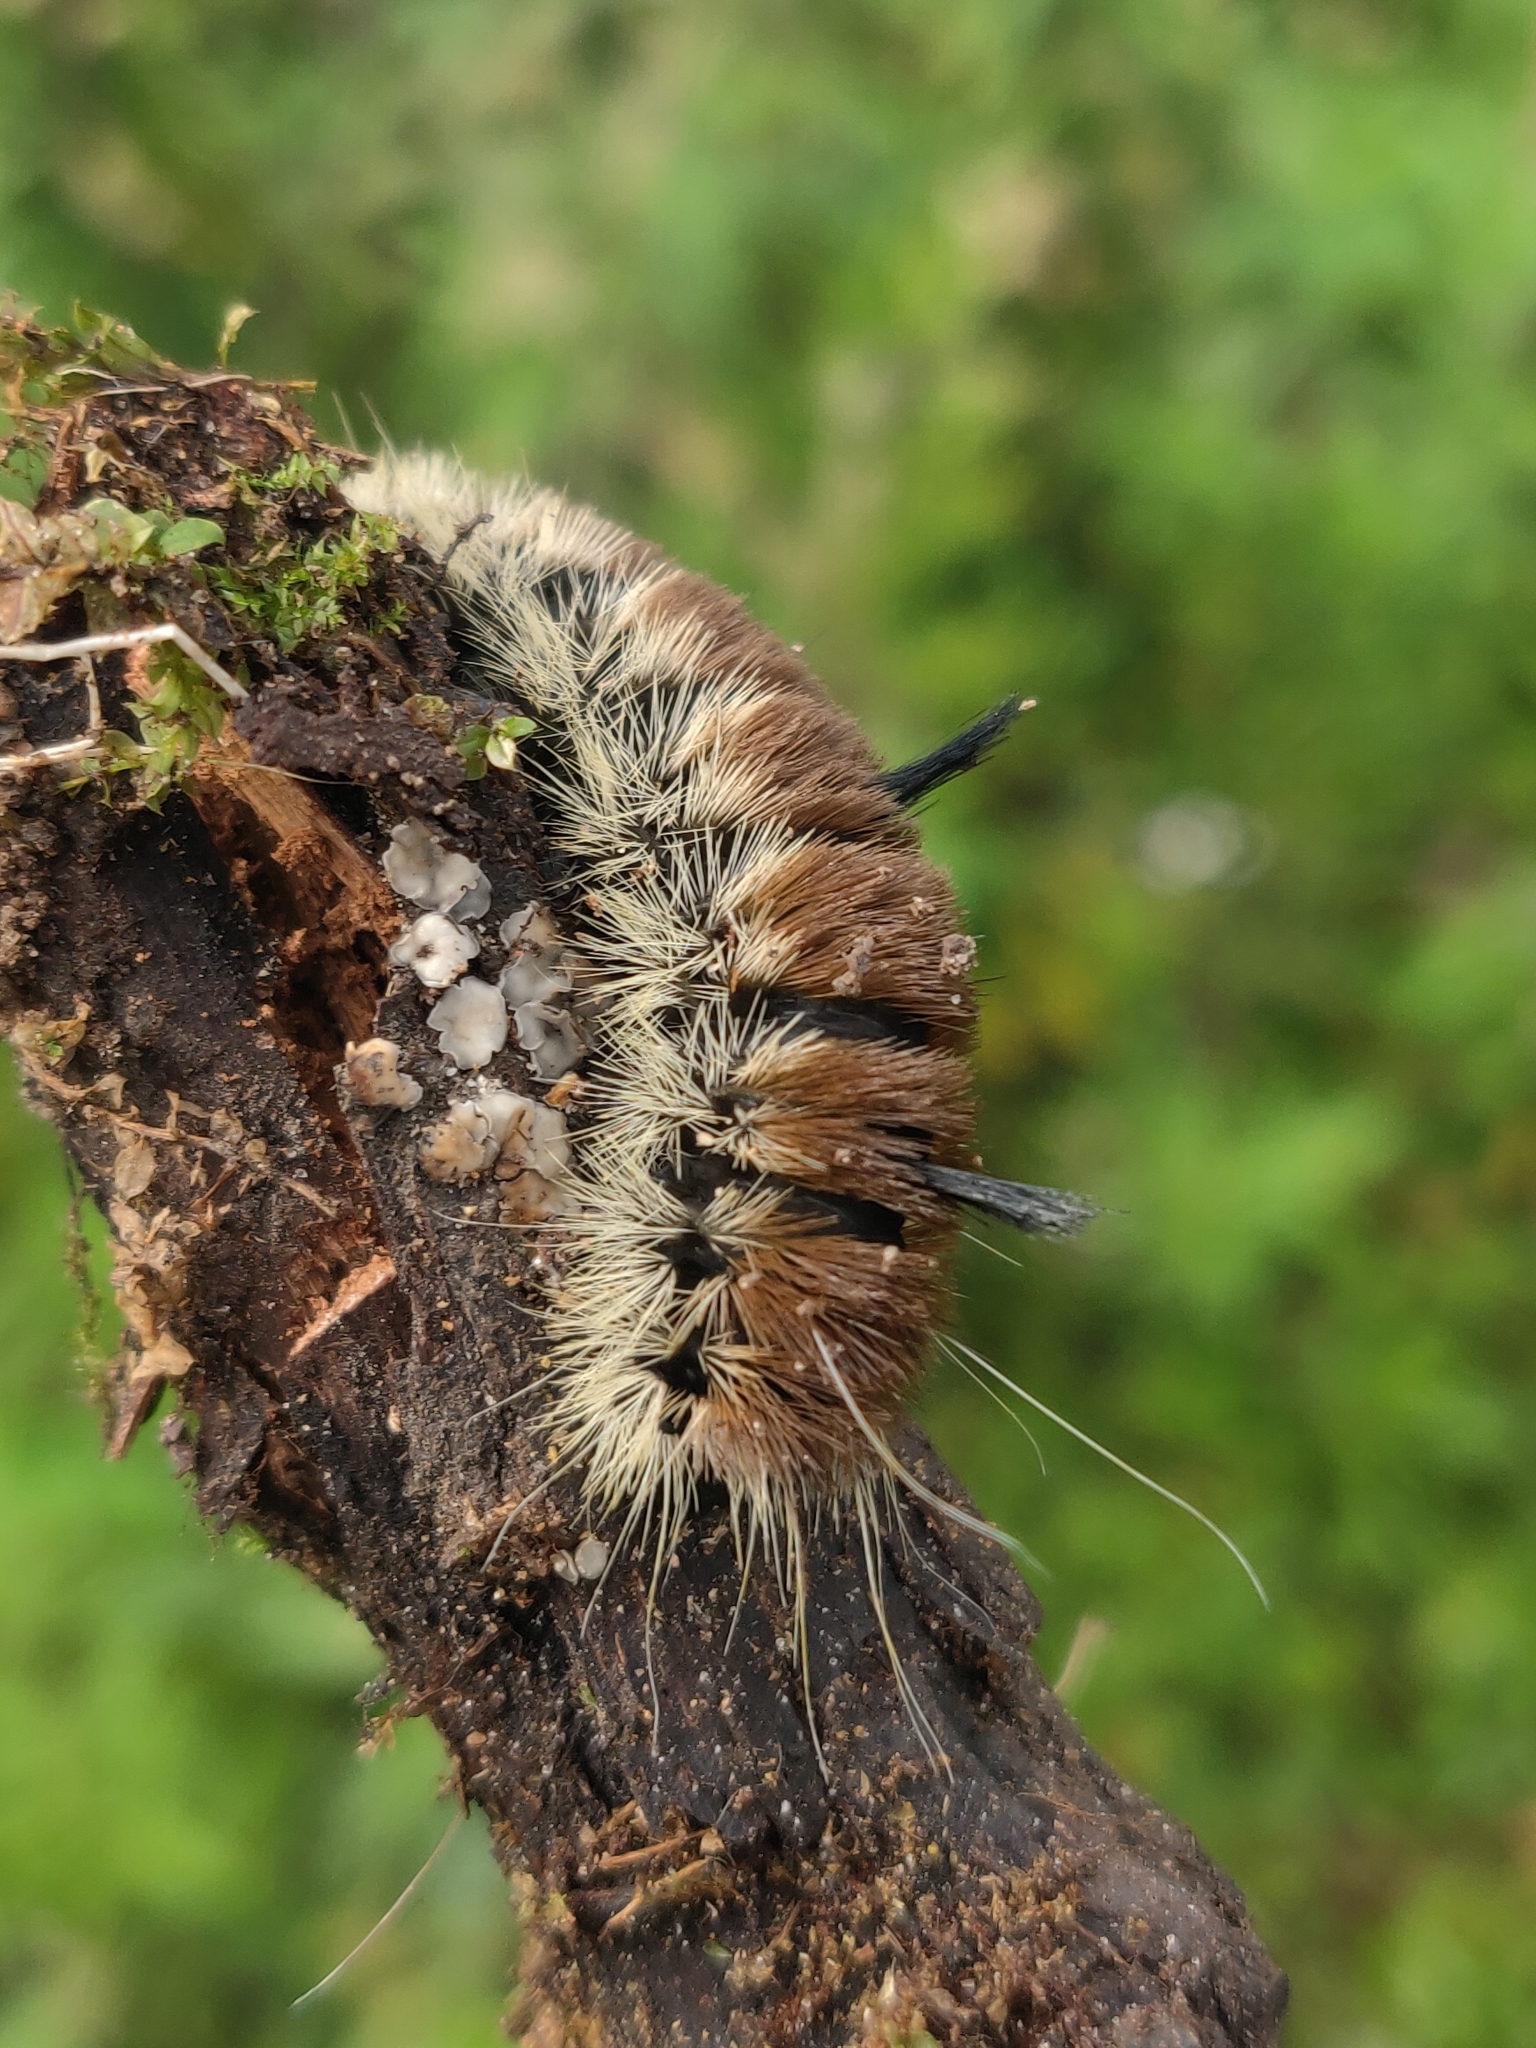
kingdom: Animalia
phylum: Arthropoda
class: Insecta
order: Lepidoptera
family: Noctuidae
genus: Acronicta
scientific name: Acronicta insita
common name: Large gray dagger
